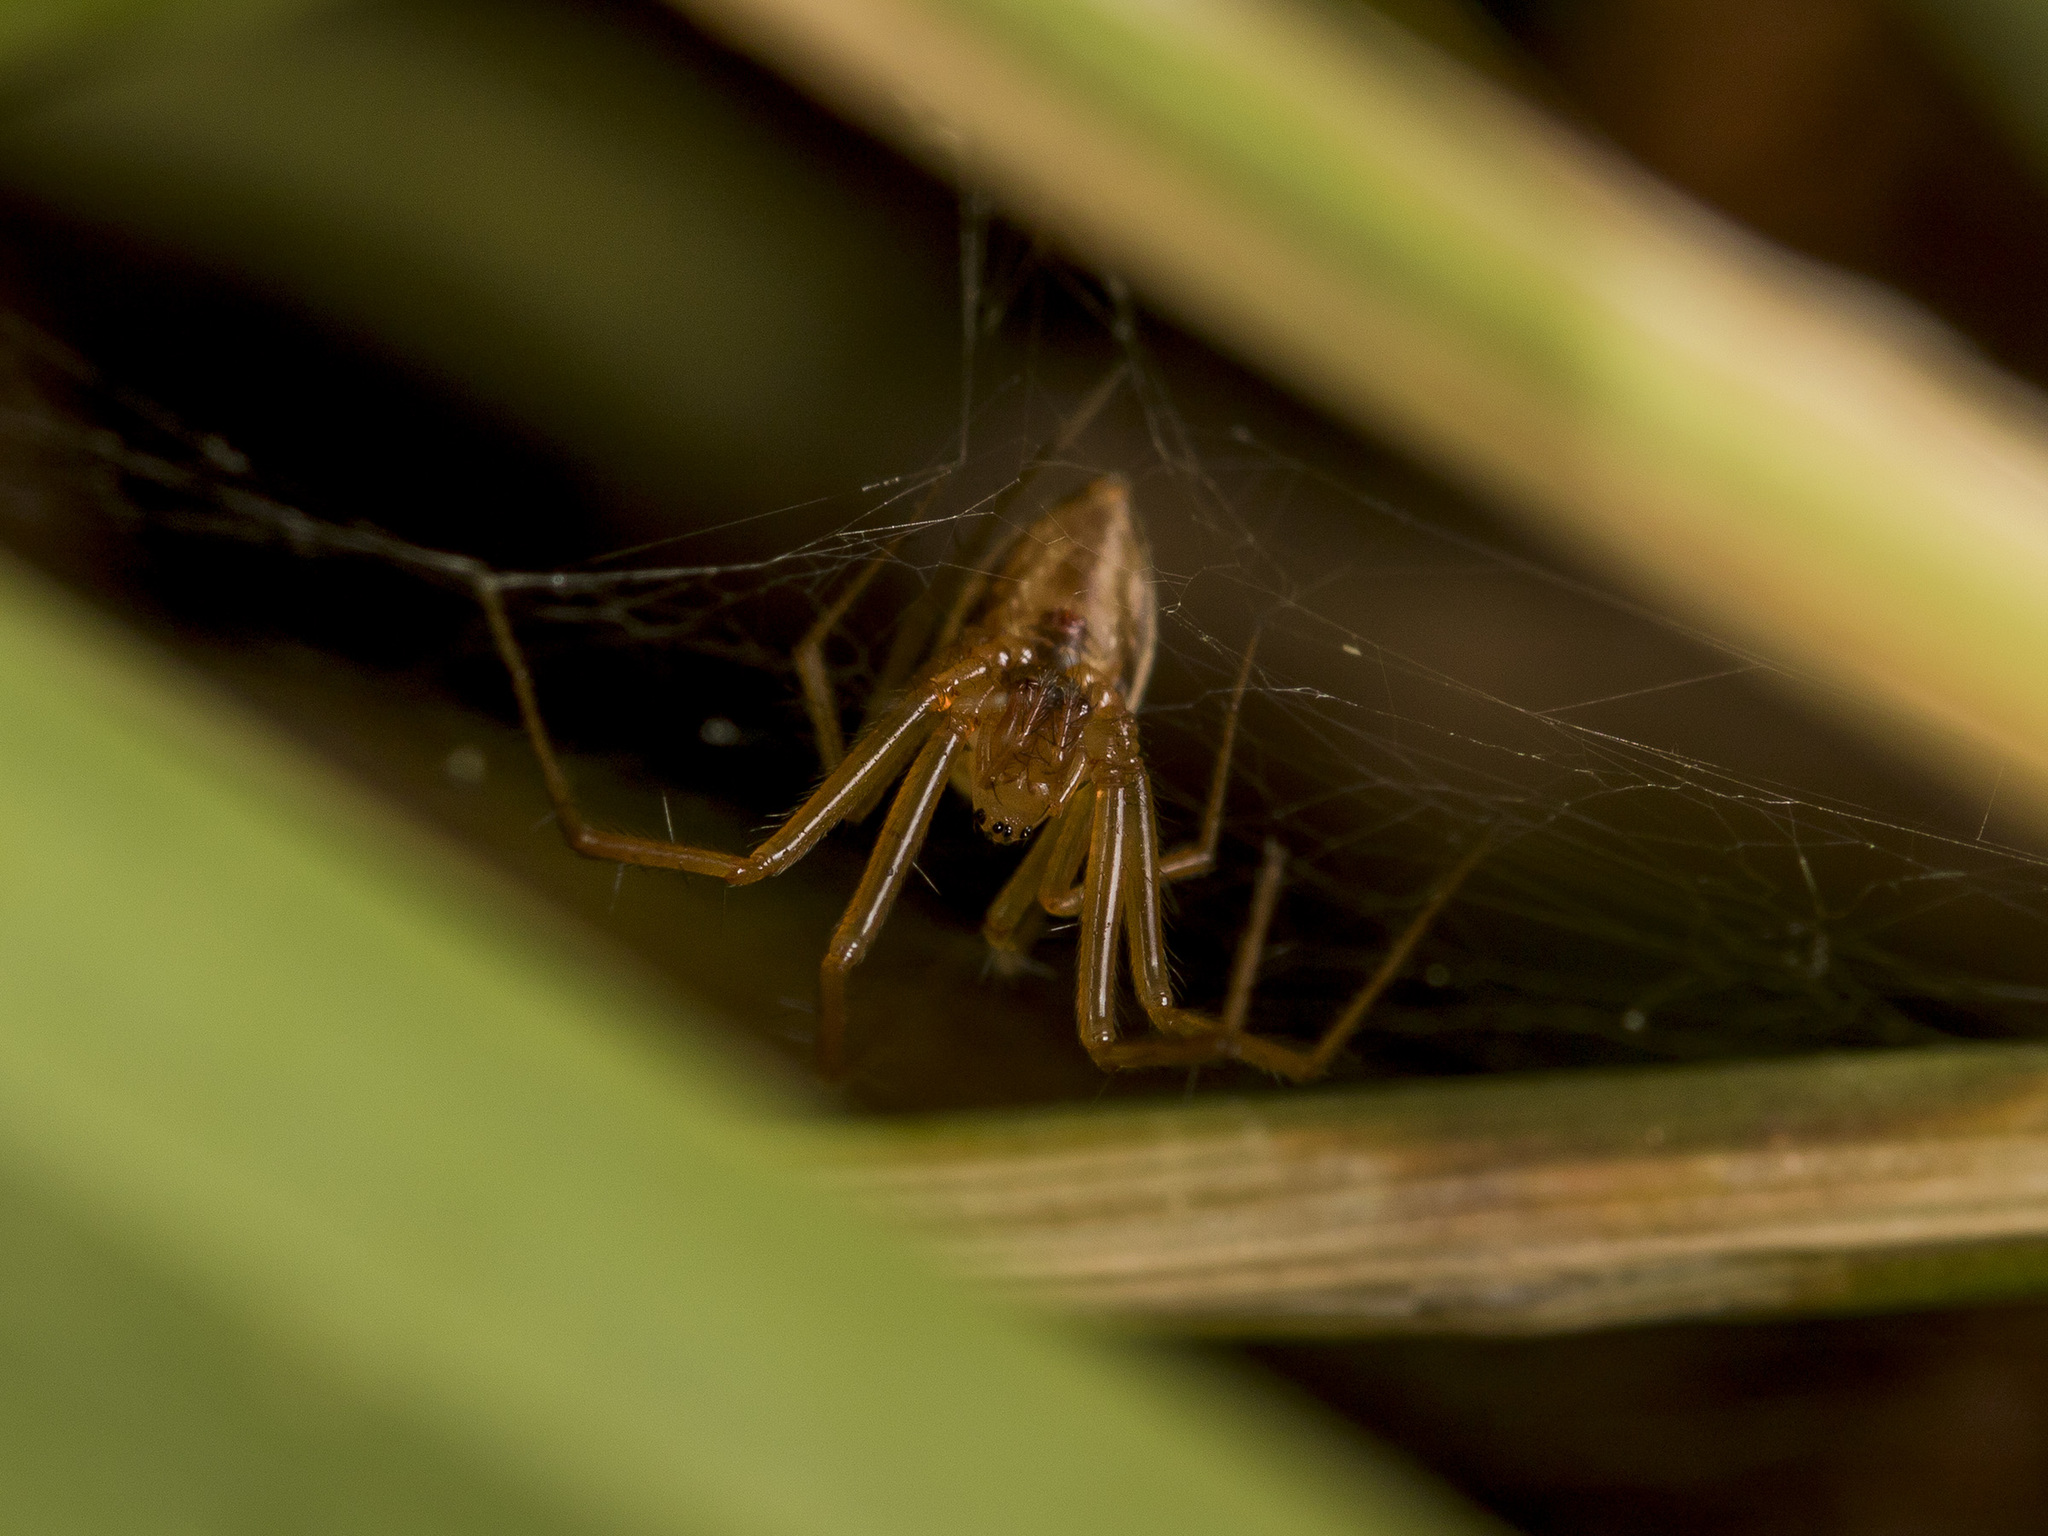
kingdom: Animalia
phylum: Arthropoda
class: Arachnida
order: Araneae
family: Linyphiidae
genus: Bolyphantes
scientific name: Bolyphantes alticeps
